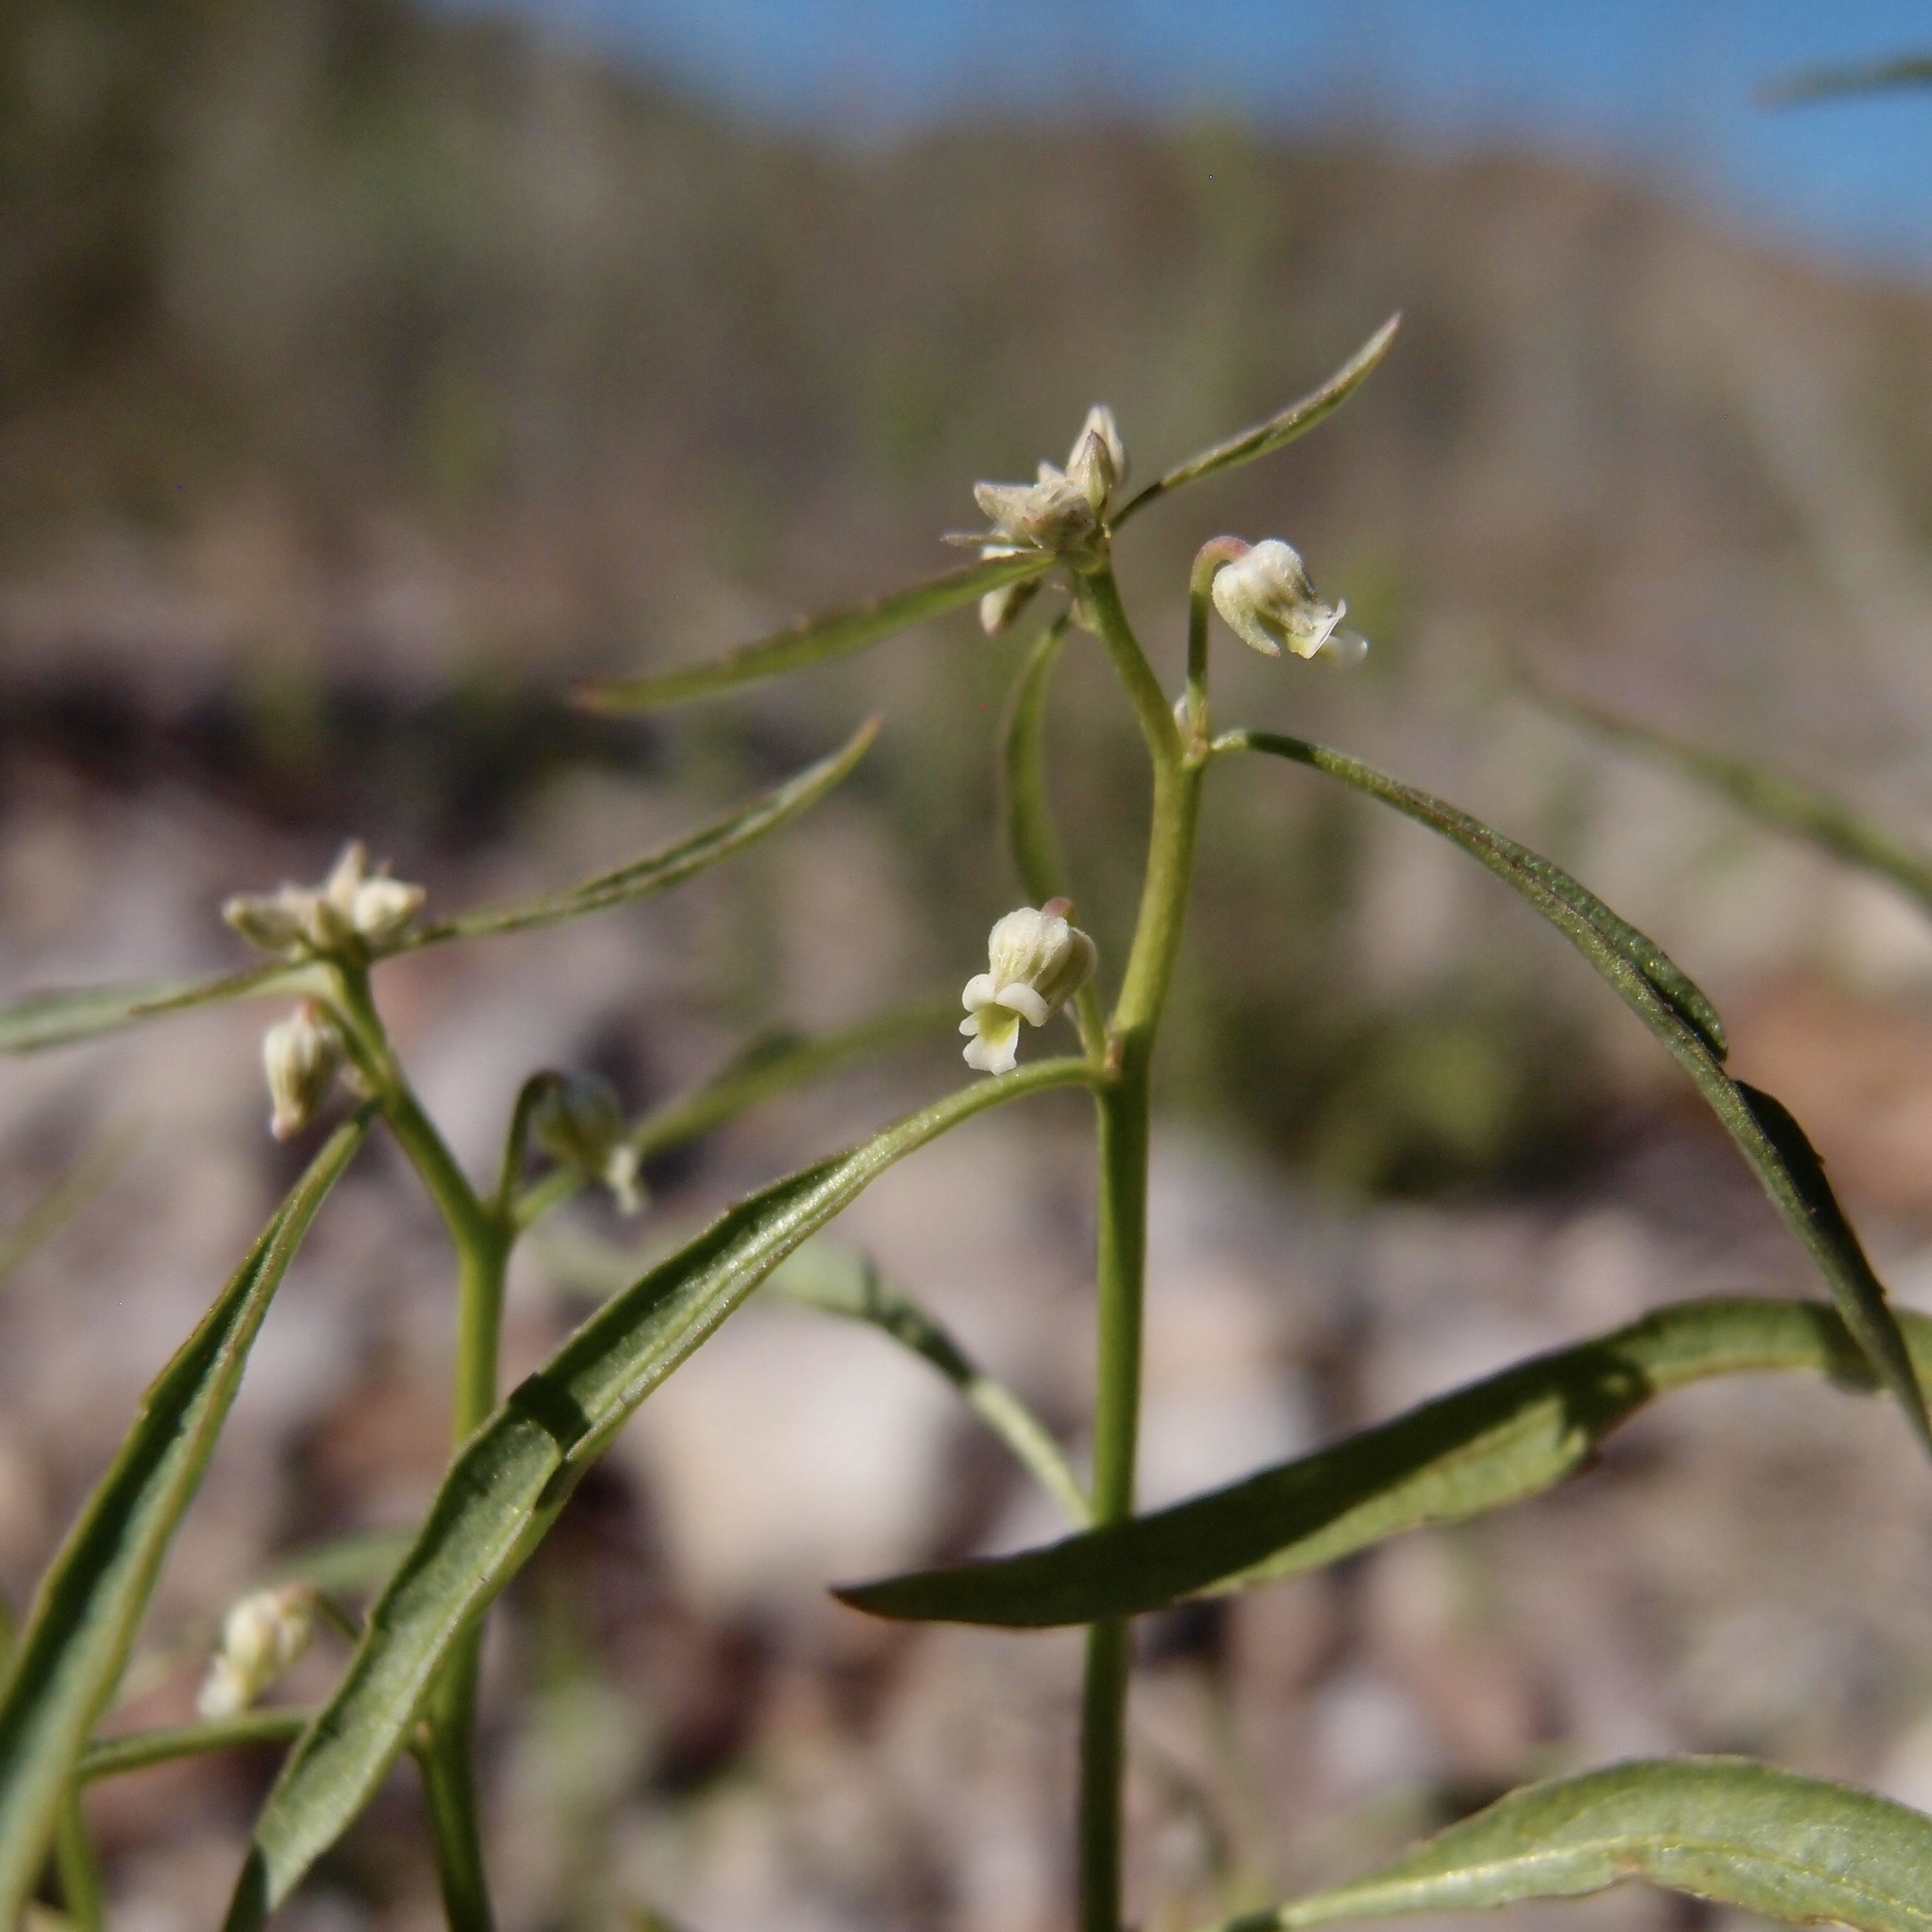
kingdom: Plantae
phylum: Tracheophyta
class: Magnoliopsida
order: Malpighiales
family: Violaceae
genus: Hybanthus
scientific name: Hybanthus fruticulosus
